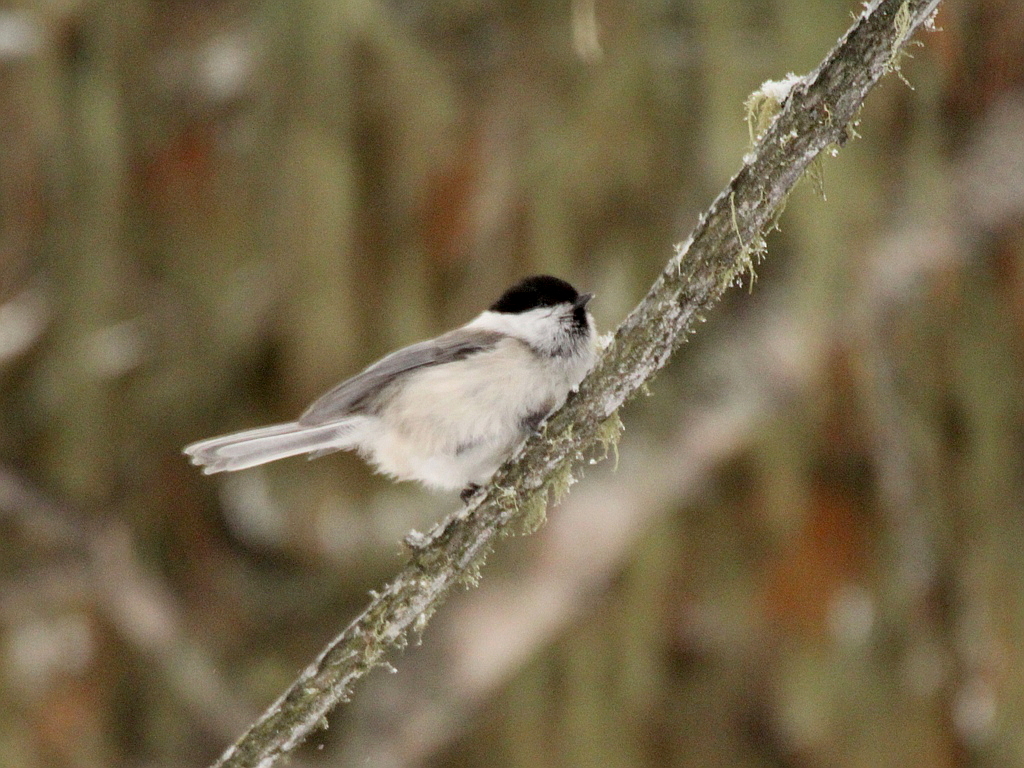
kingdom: Animalia
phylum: Chordata
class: Aves
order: Passeriformes
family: Paridae
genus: Poecile
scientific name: Poecile montanus
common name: Willow tit
